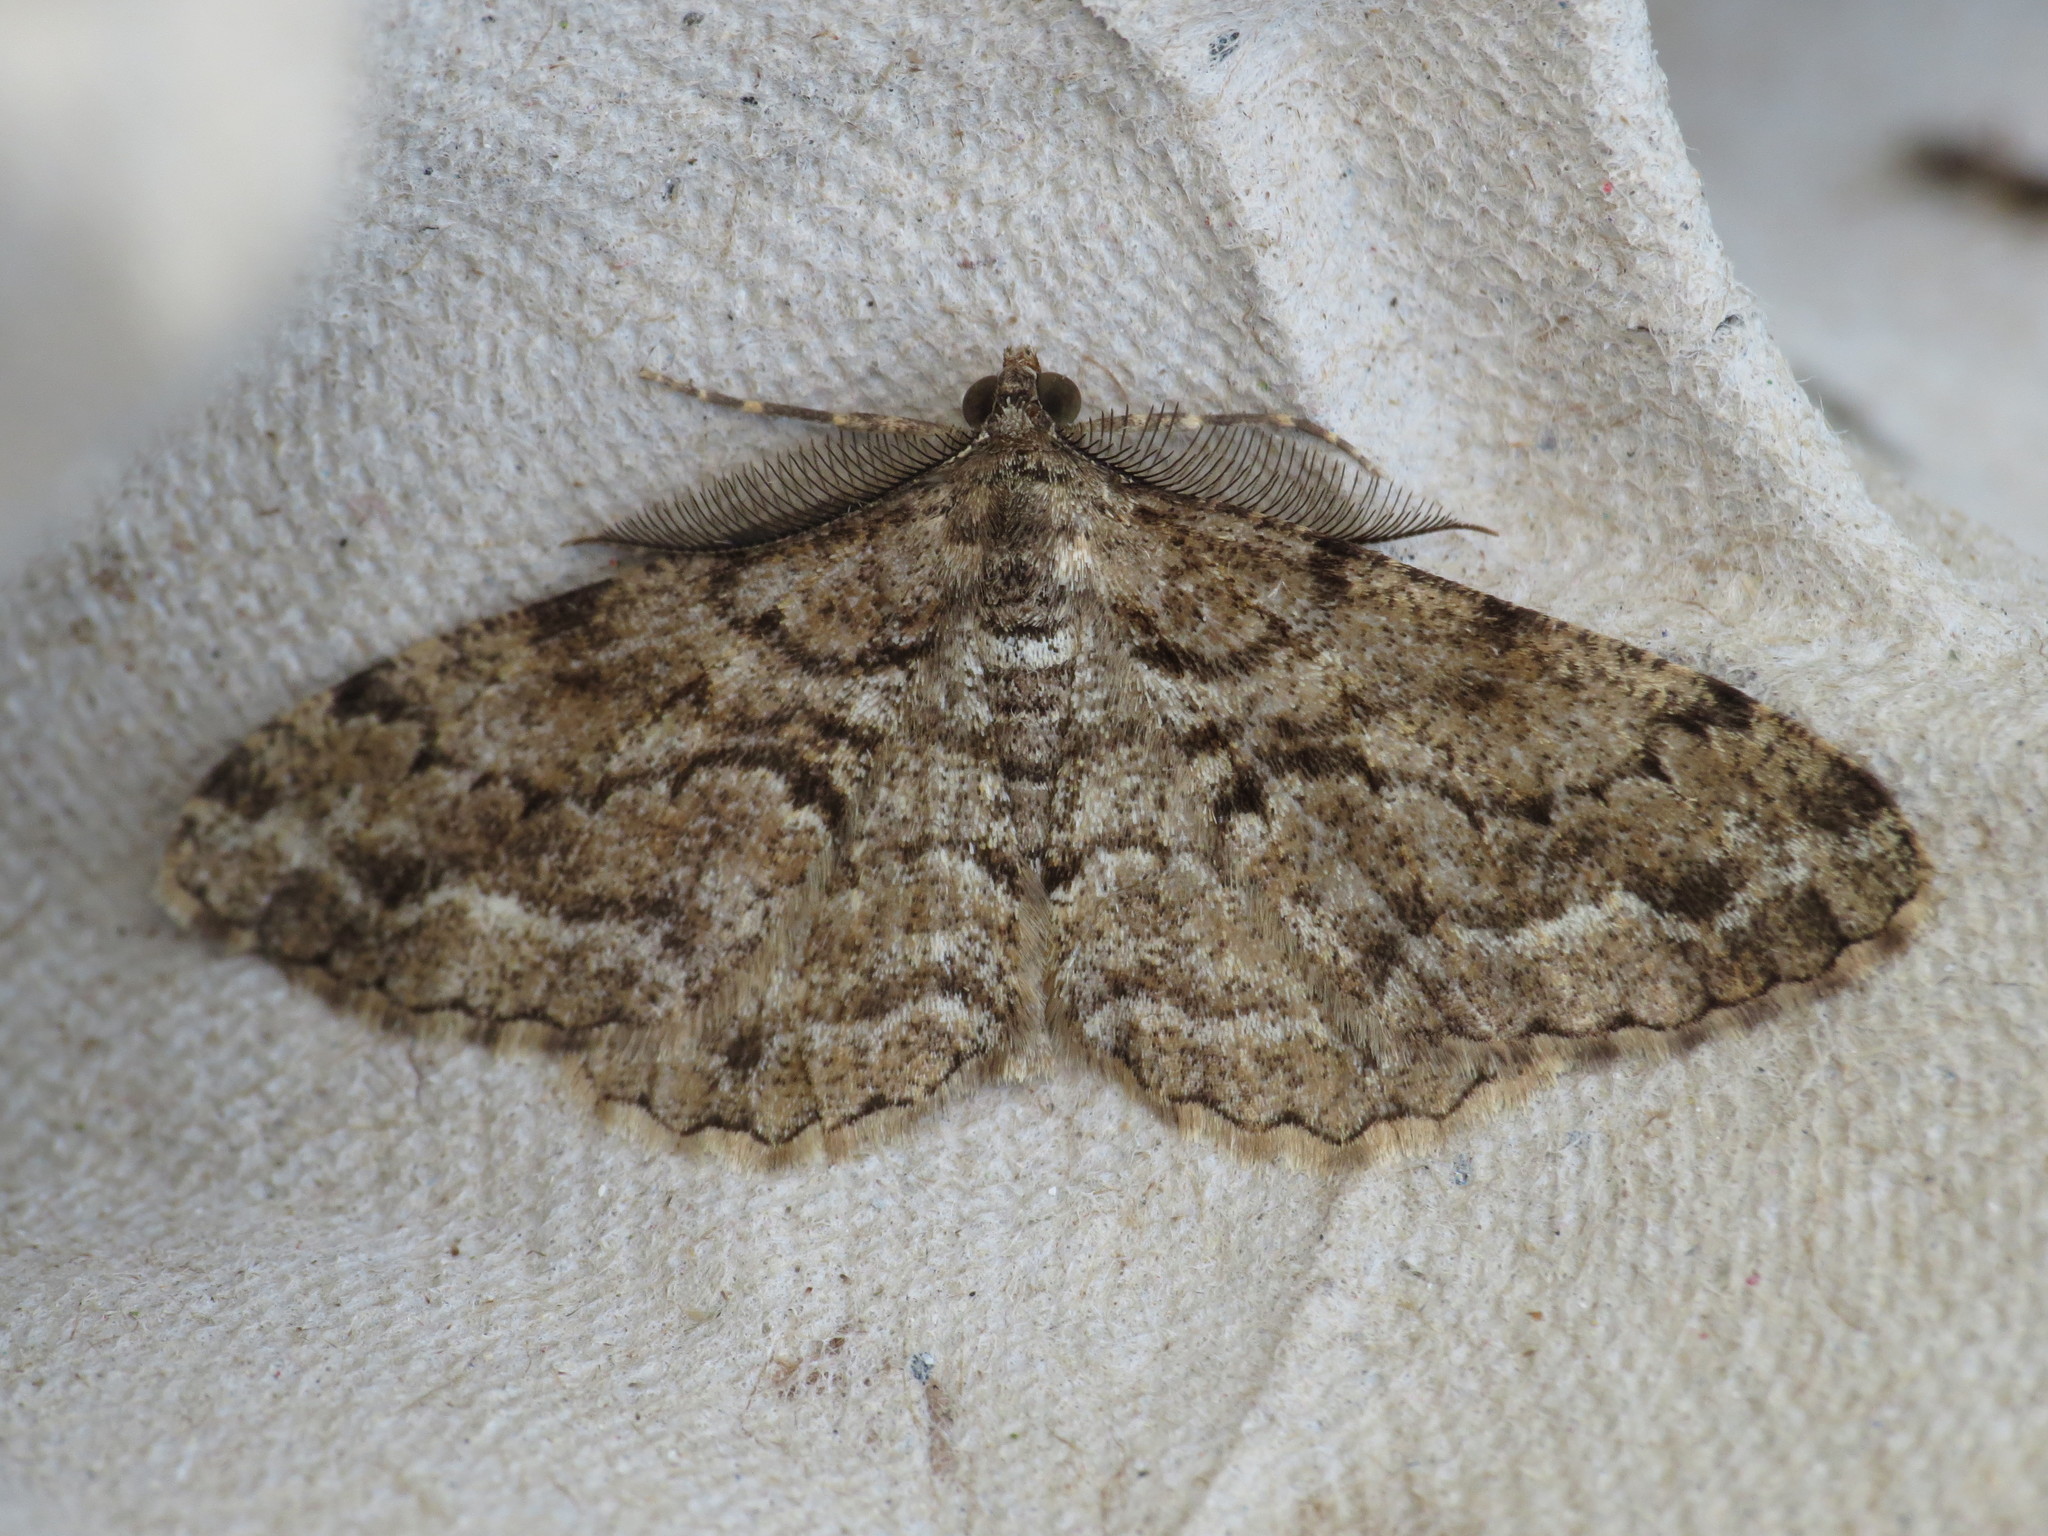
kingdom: Animalia
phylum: Arthropoda
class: Insecta
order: Lepidoptera
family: Geometridae
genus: Peribatodes
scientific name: Peribatodes secundaria
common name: Feathered beauty
